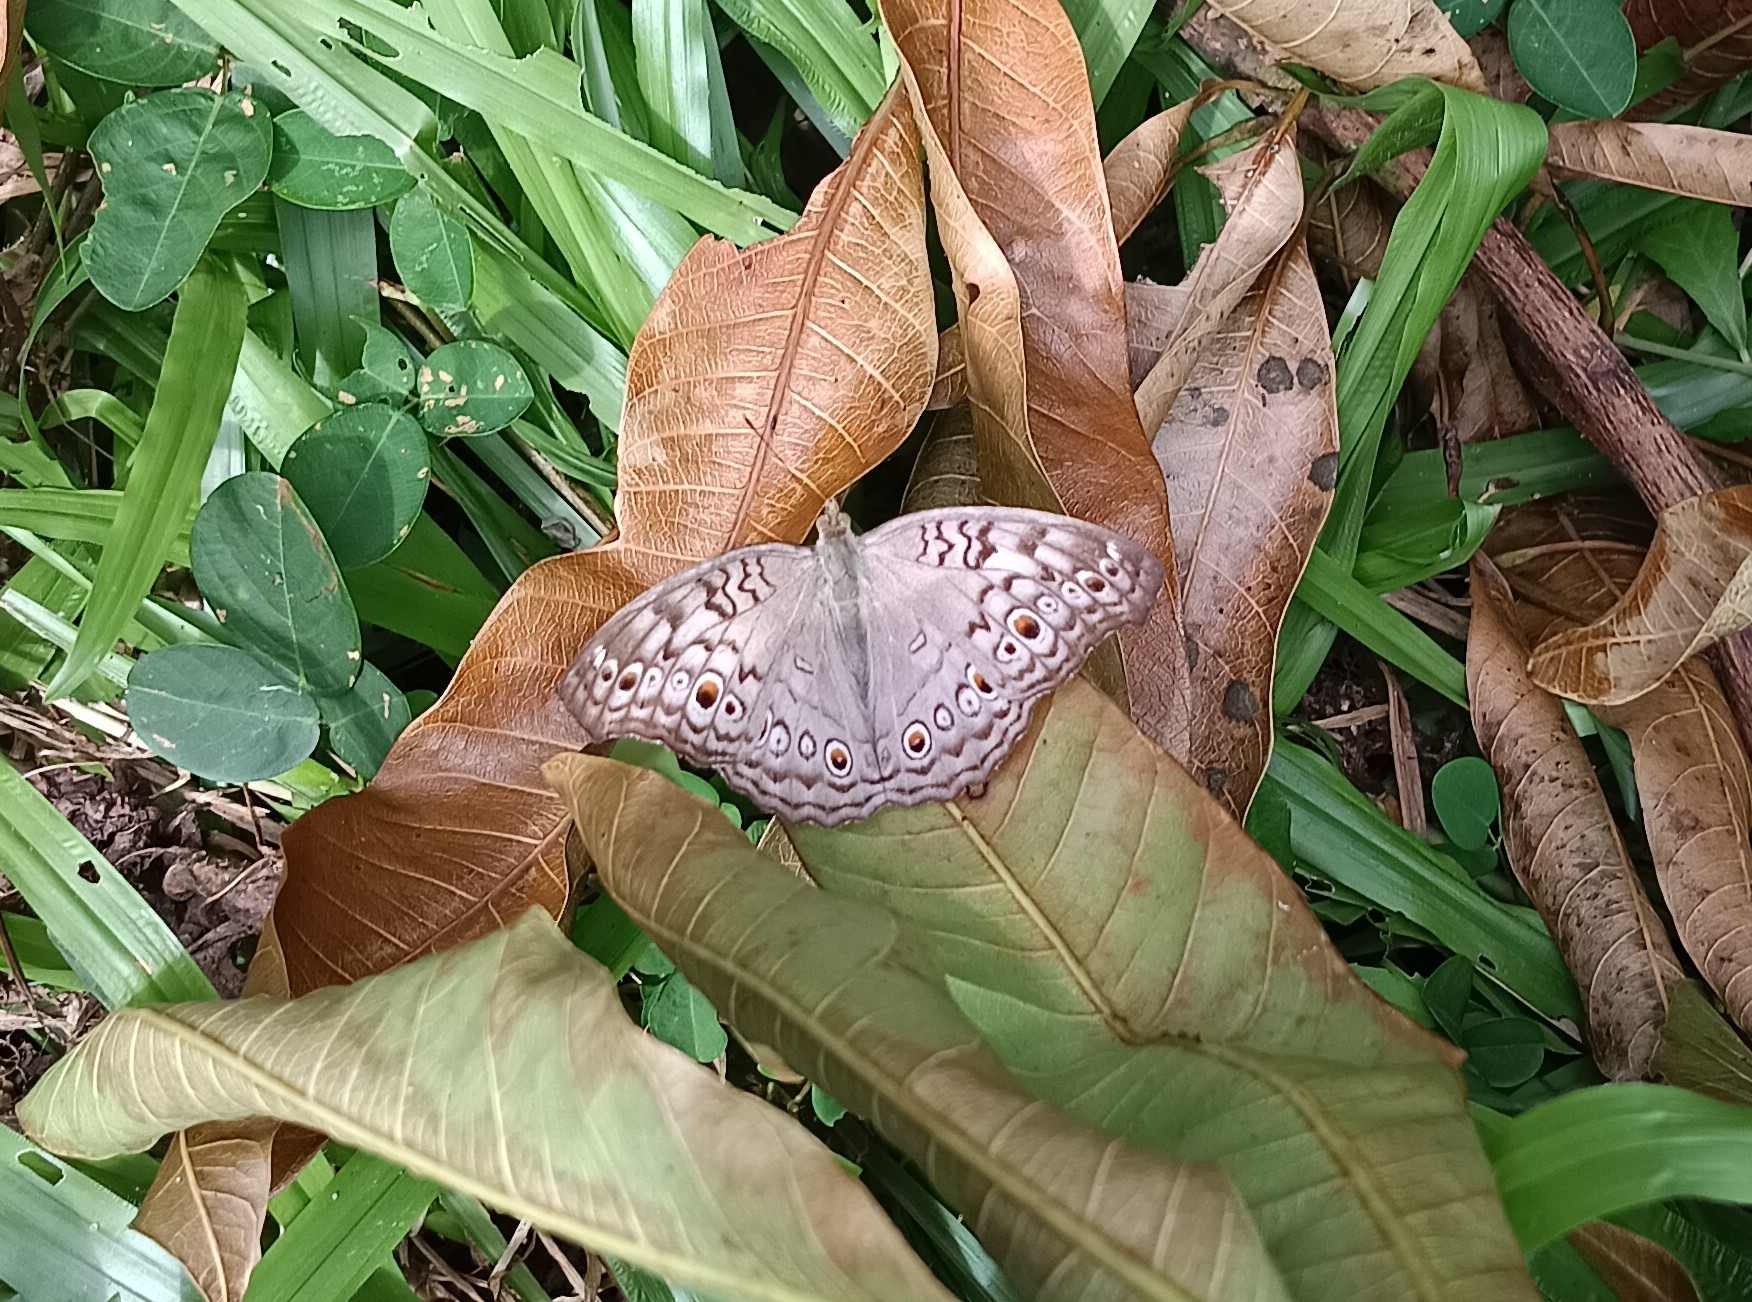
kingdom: Animalia
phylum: Arthropoda
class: Insecta
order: Lepidoptera
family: Nymphalidae
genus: Junonia
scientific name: Junonia atlites
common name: Grey pansy
